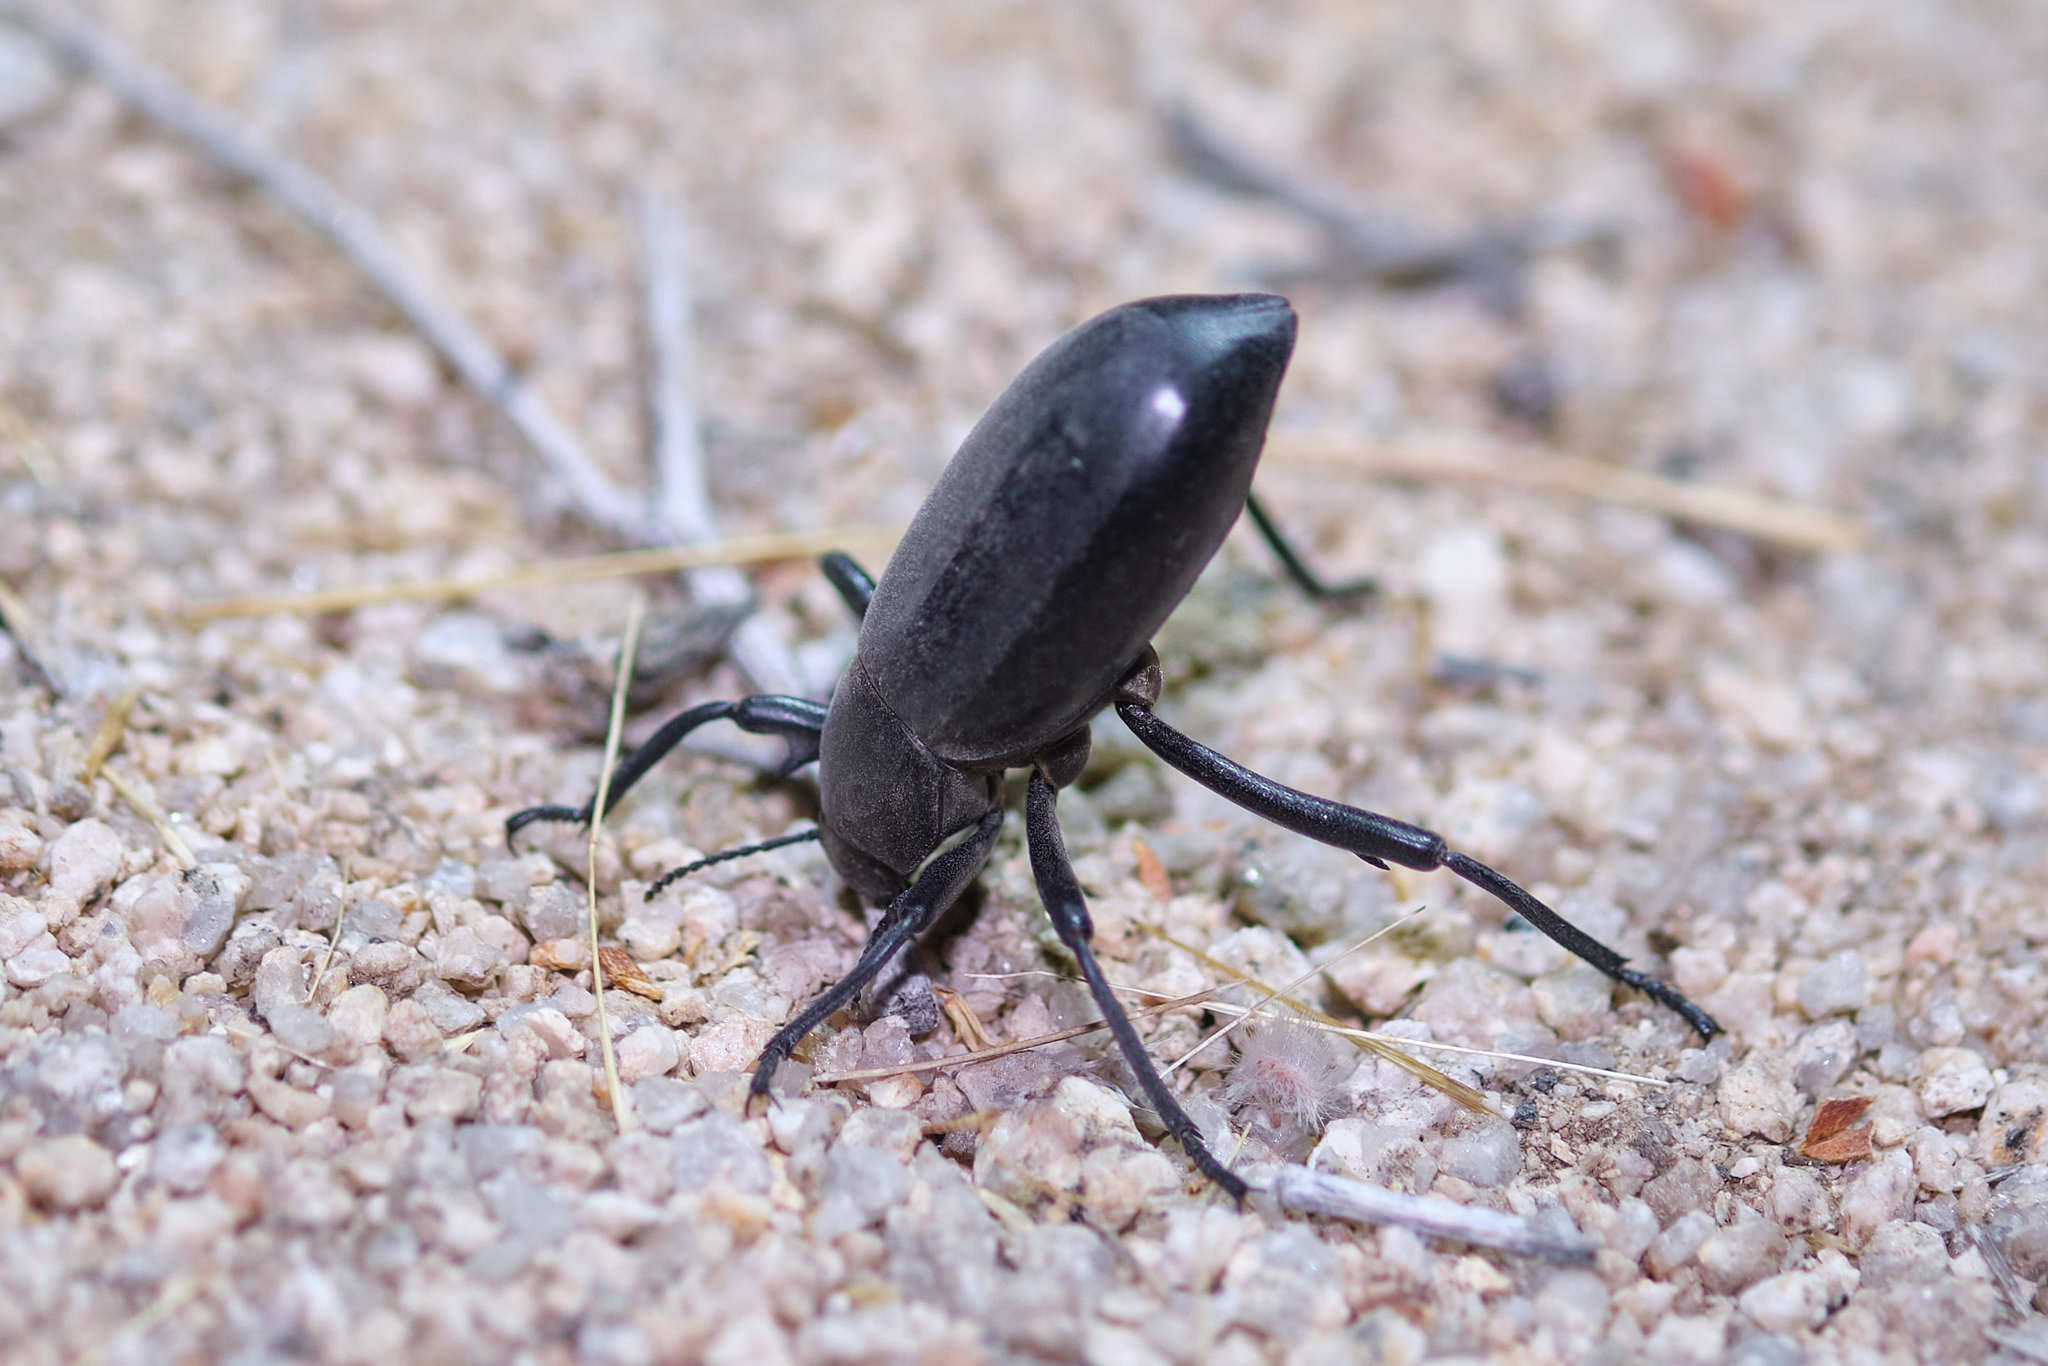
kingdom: Animalia
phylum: Arthropoda
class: Insecta
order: Coleoptera
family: Tenebrionidae
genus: Eleodes
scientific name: Eleodes armata
